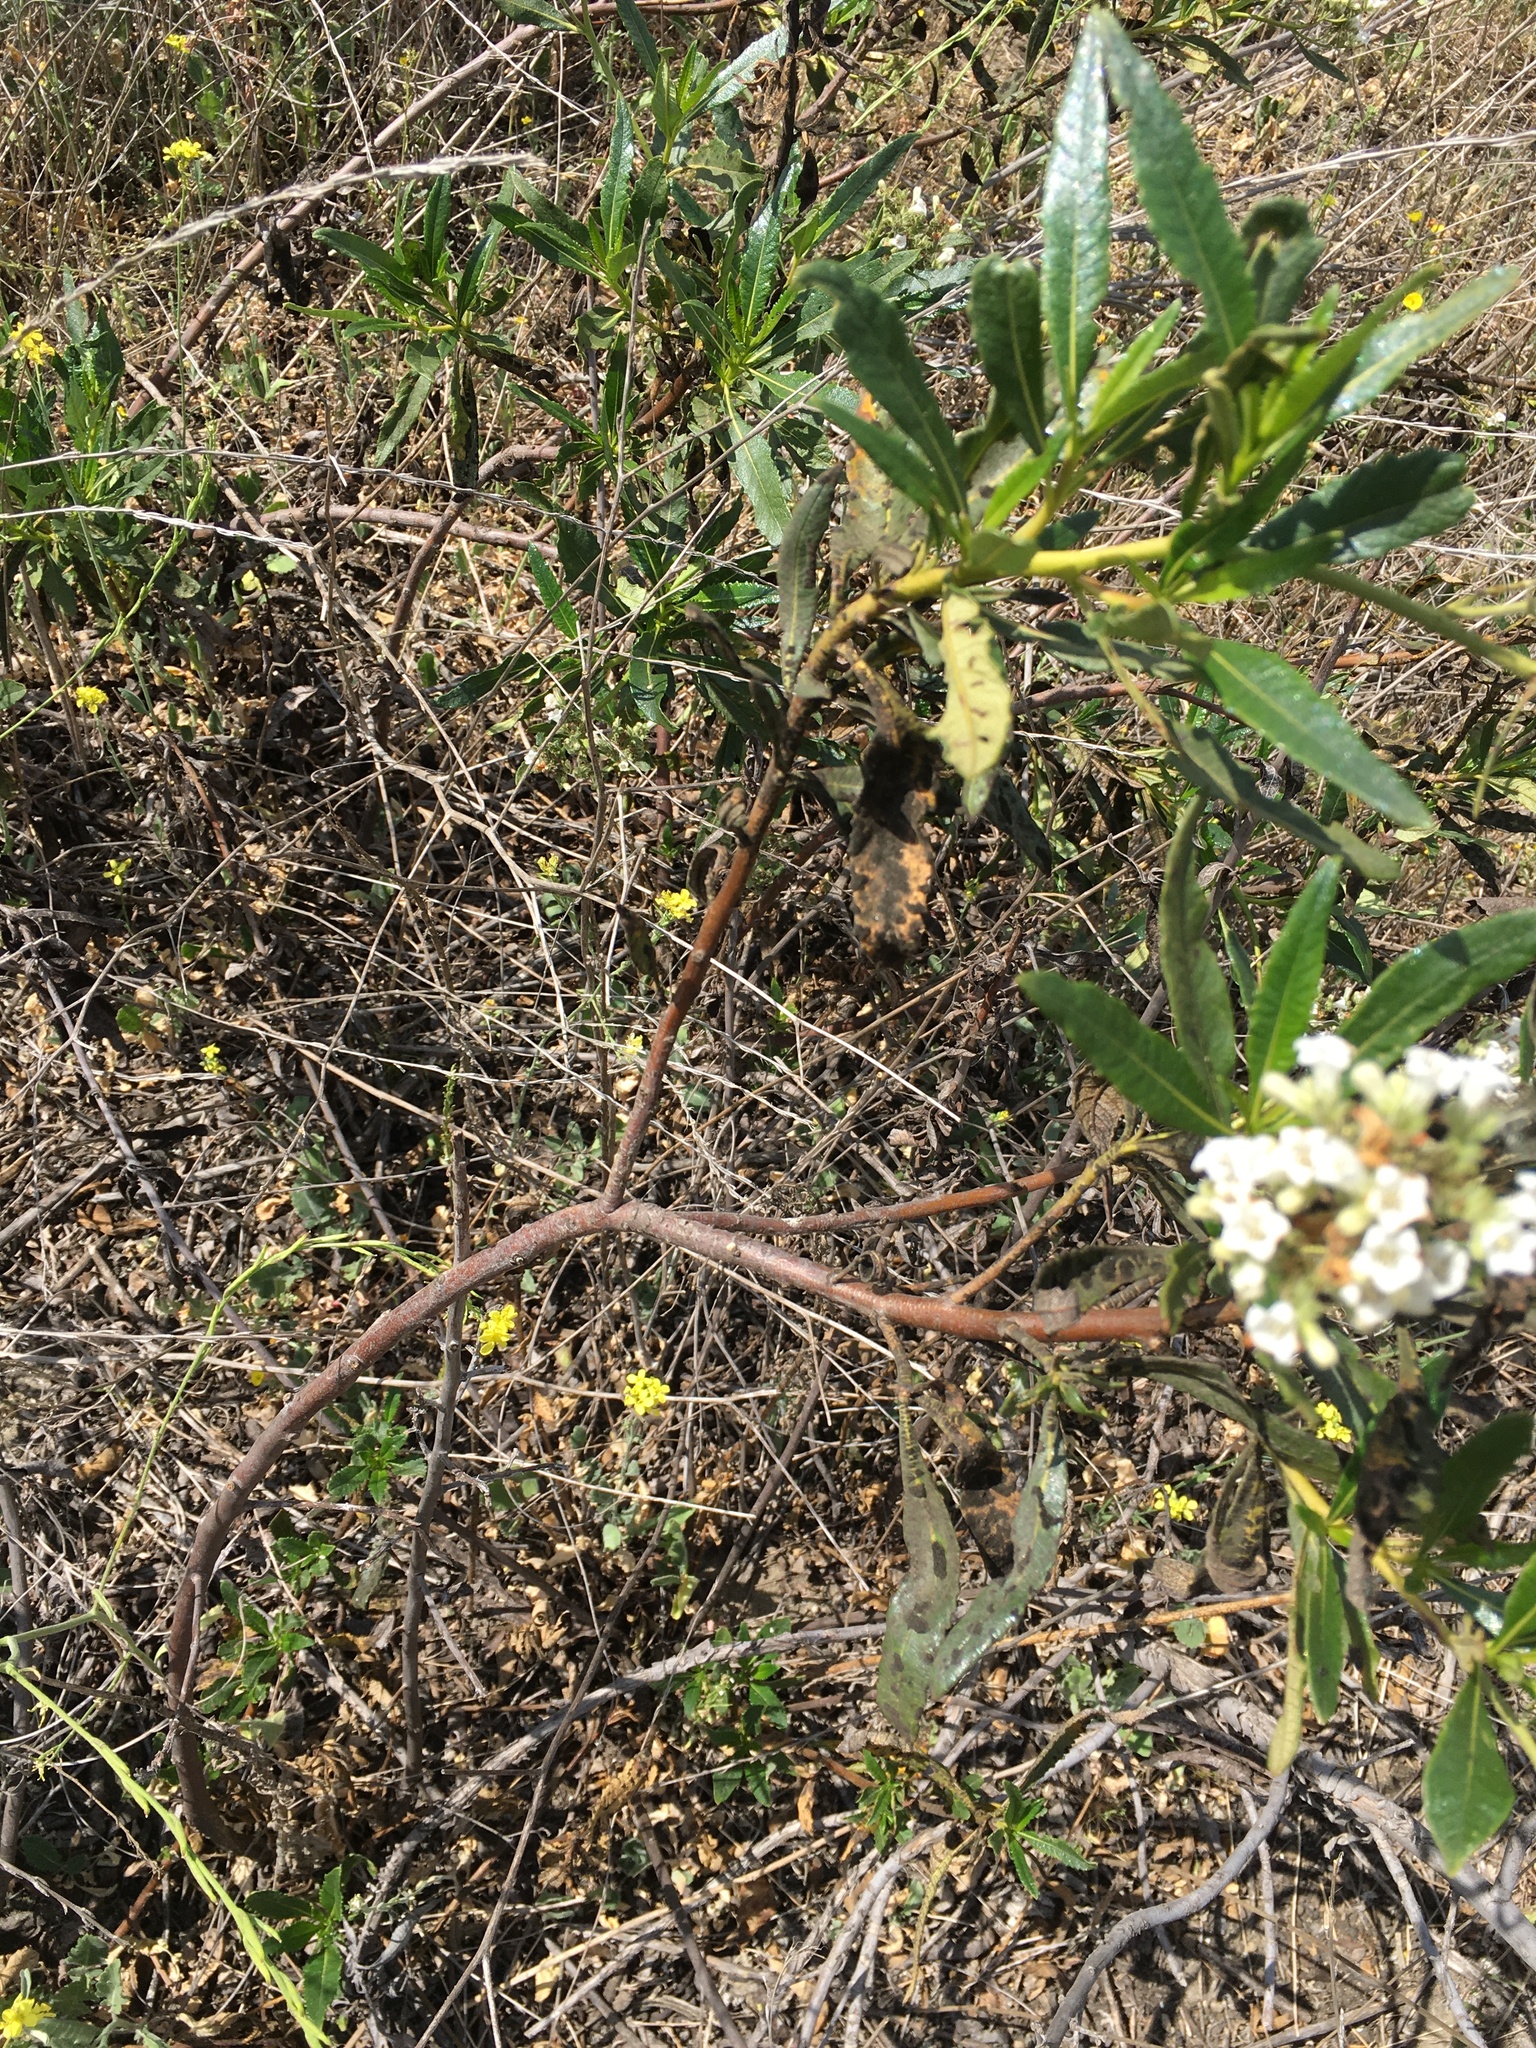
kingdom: Plantae
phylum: Tracheophyta
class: Magnoliopsida
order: Boraginales
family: Namaceae
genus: Eriodictyon
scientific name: Eriodictyon trichocalyx
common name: Hairy yerba-santa
